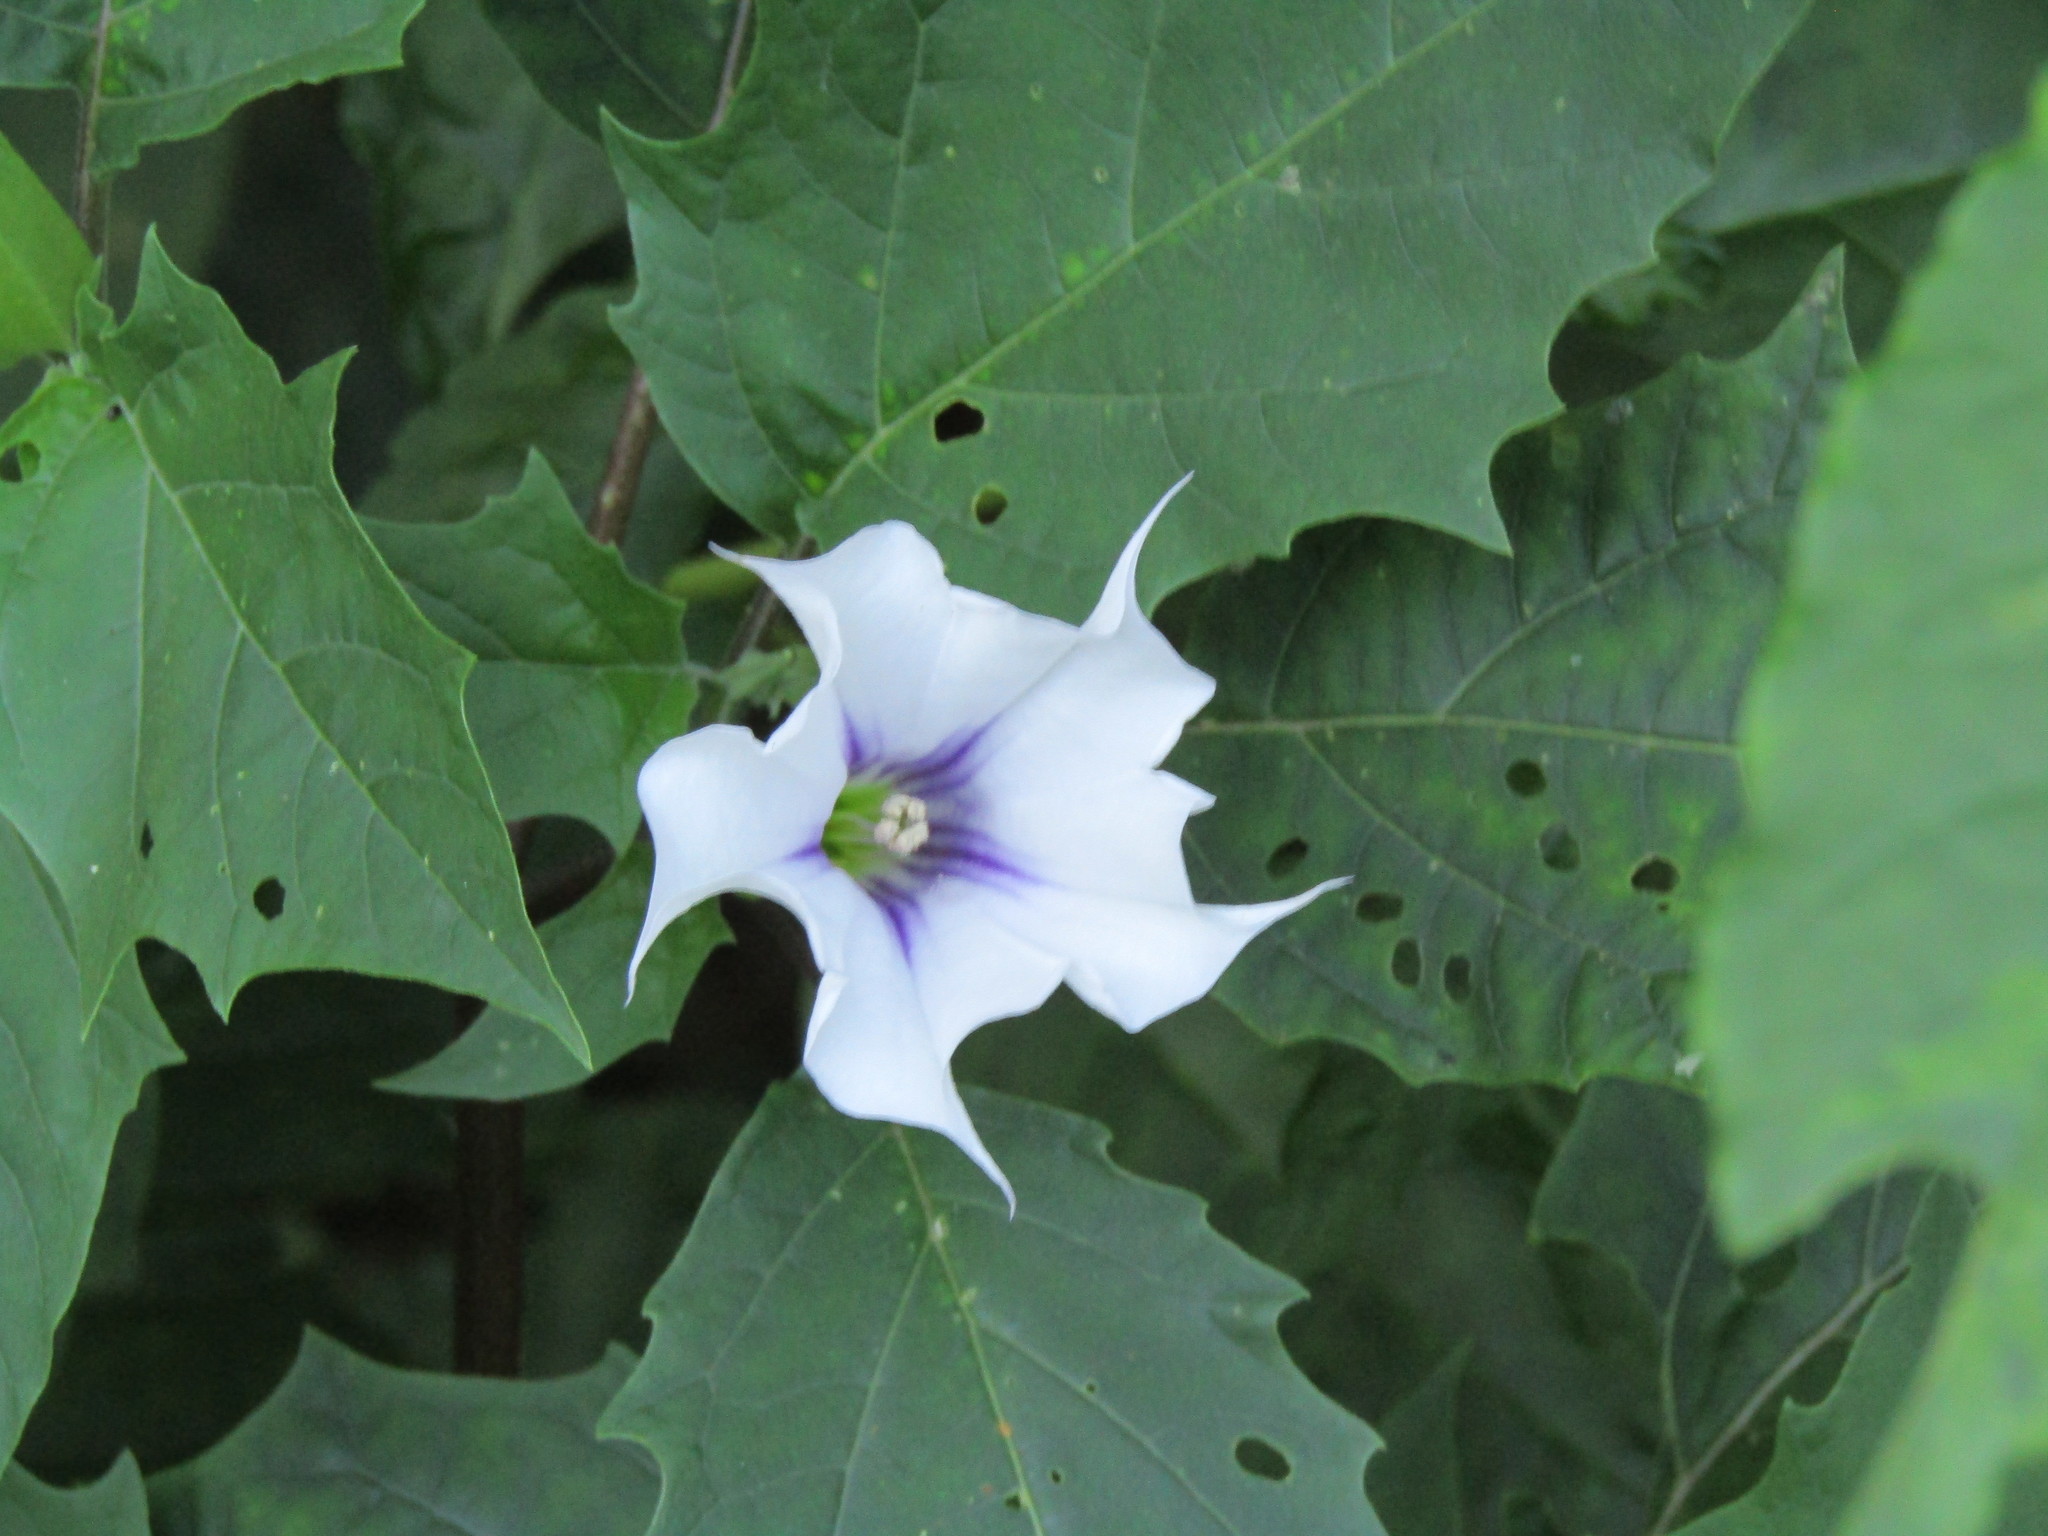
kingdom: Plantae
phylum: Tracheophyta
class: Magnoliopsida
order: Solanales
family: Solanaceae
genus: Datura
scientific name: Datura stramonium
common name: Thorn-apple
